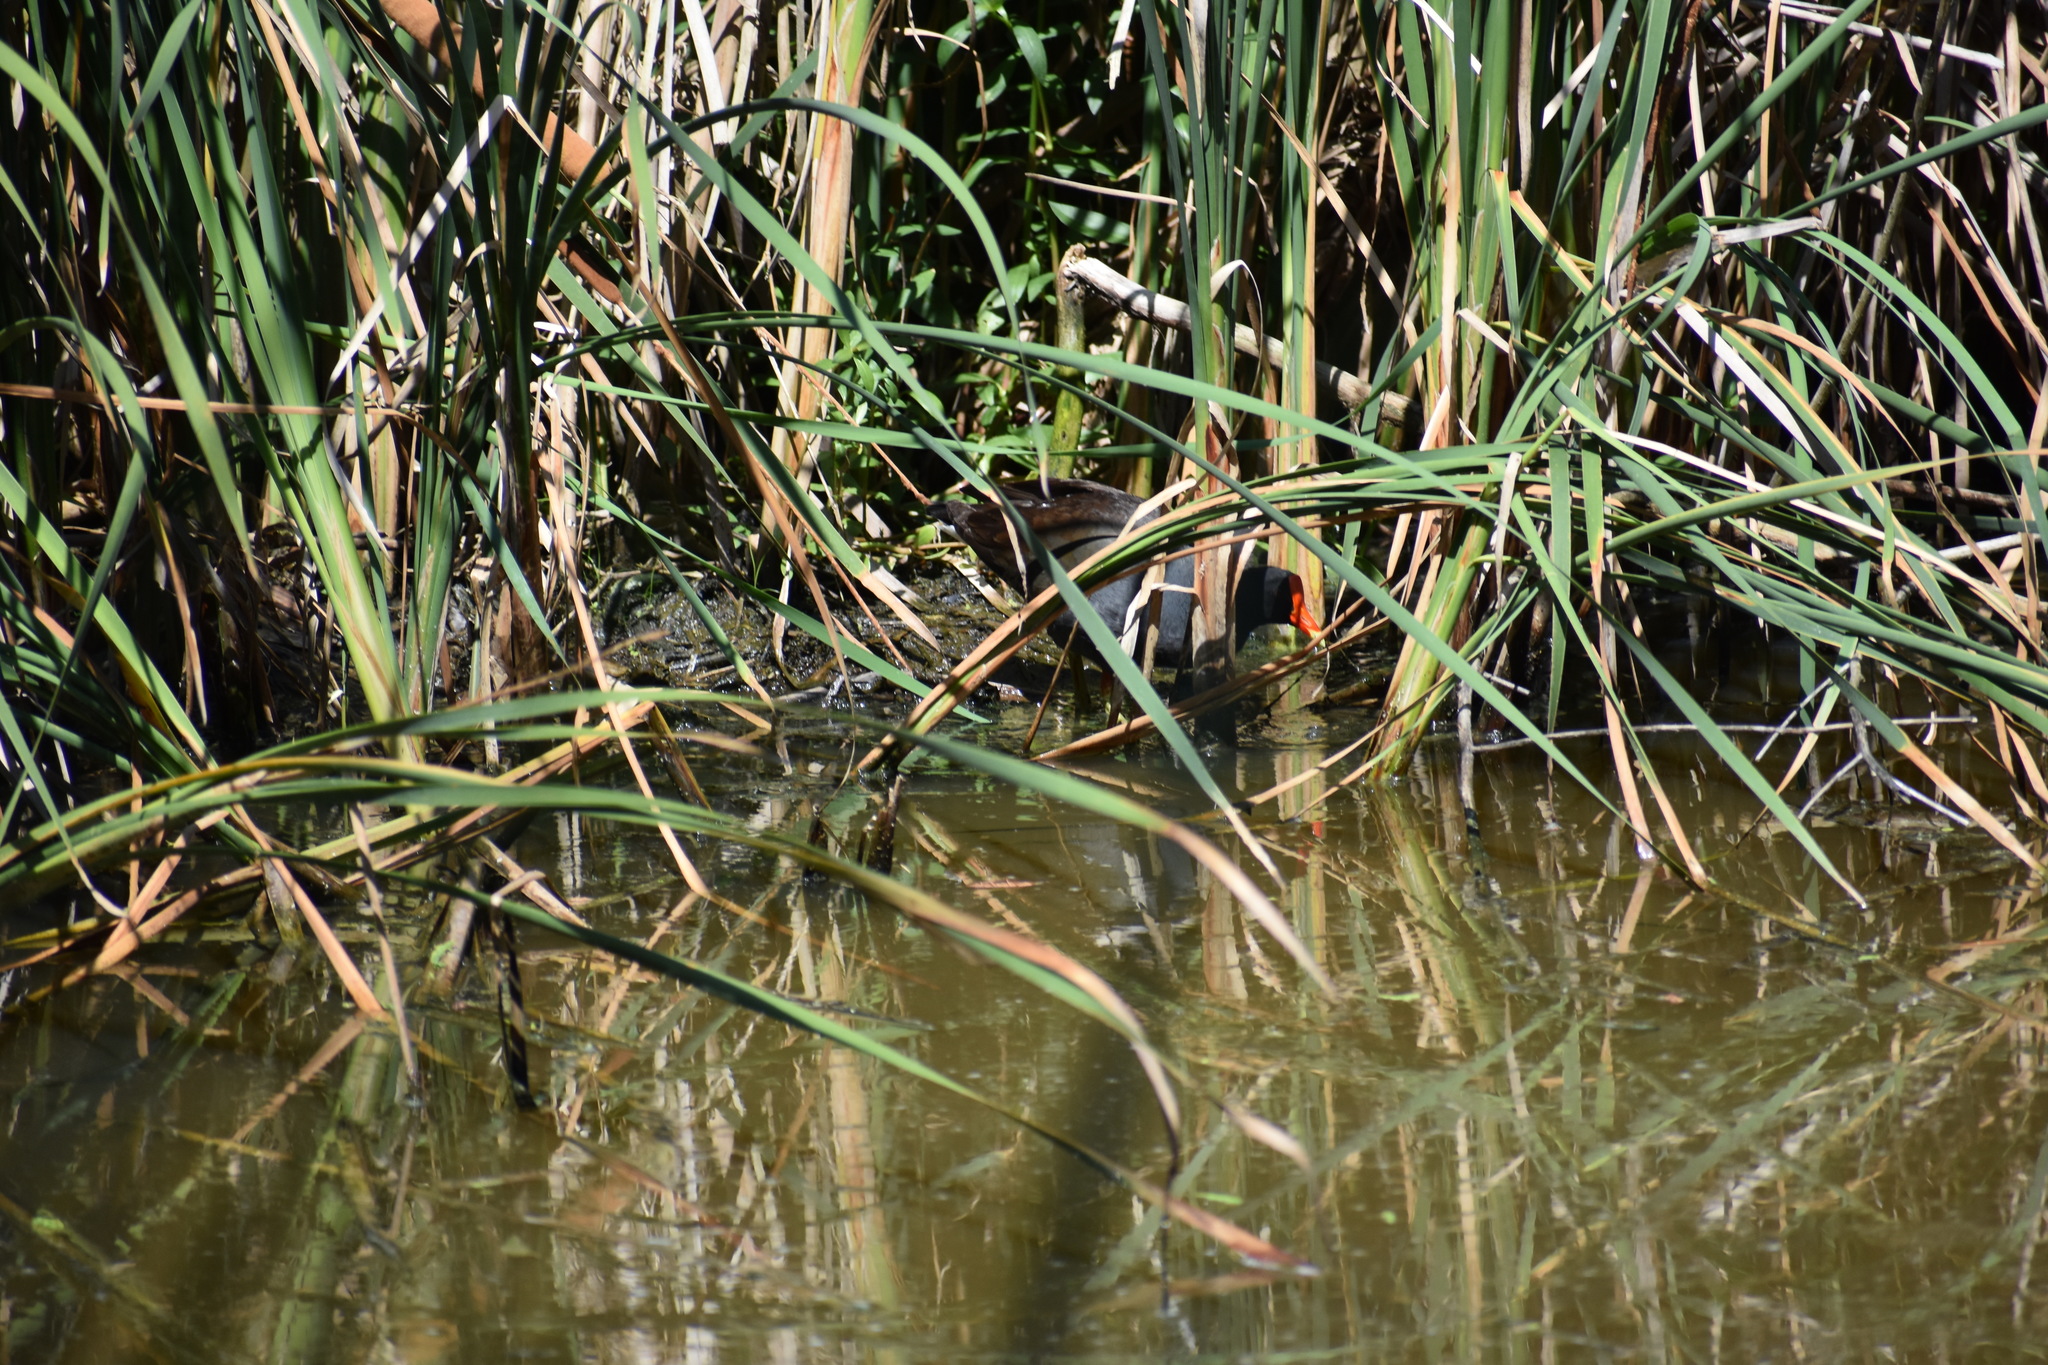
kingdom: Animalia
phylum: Chordata
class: Aves
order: Gruiformes
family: Rallidae
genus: Gallinula
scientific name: Gallinula chloropus
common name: Common moorhen
